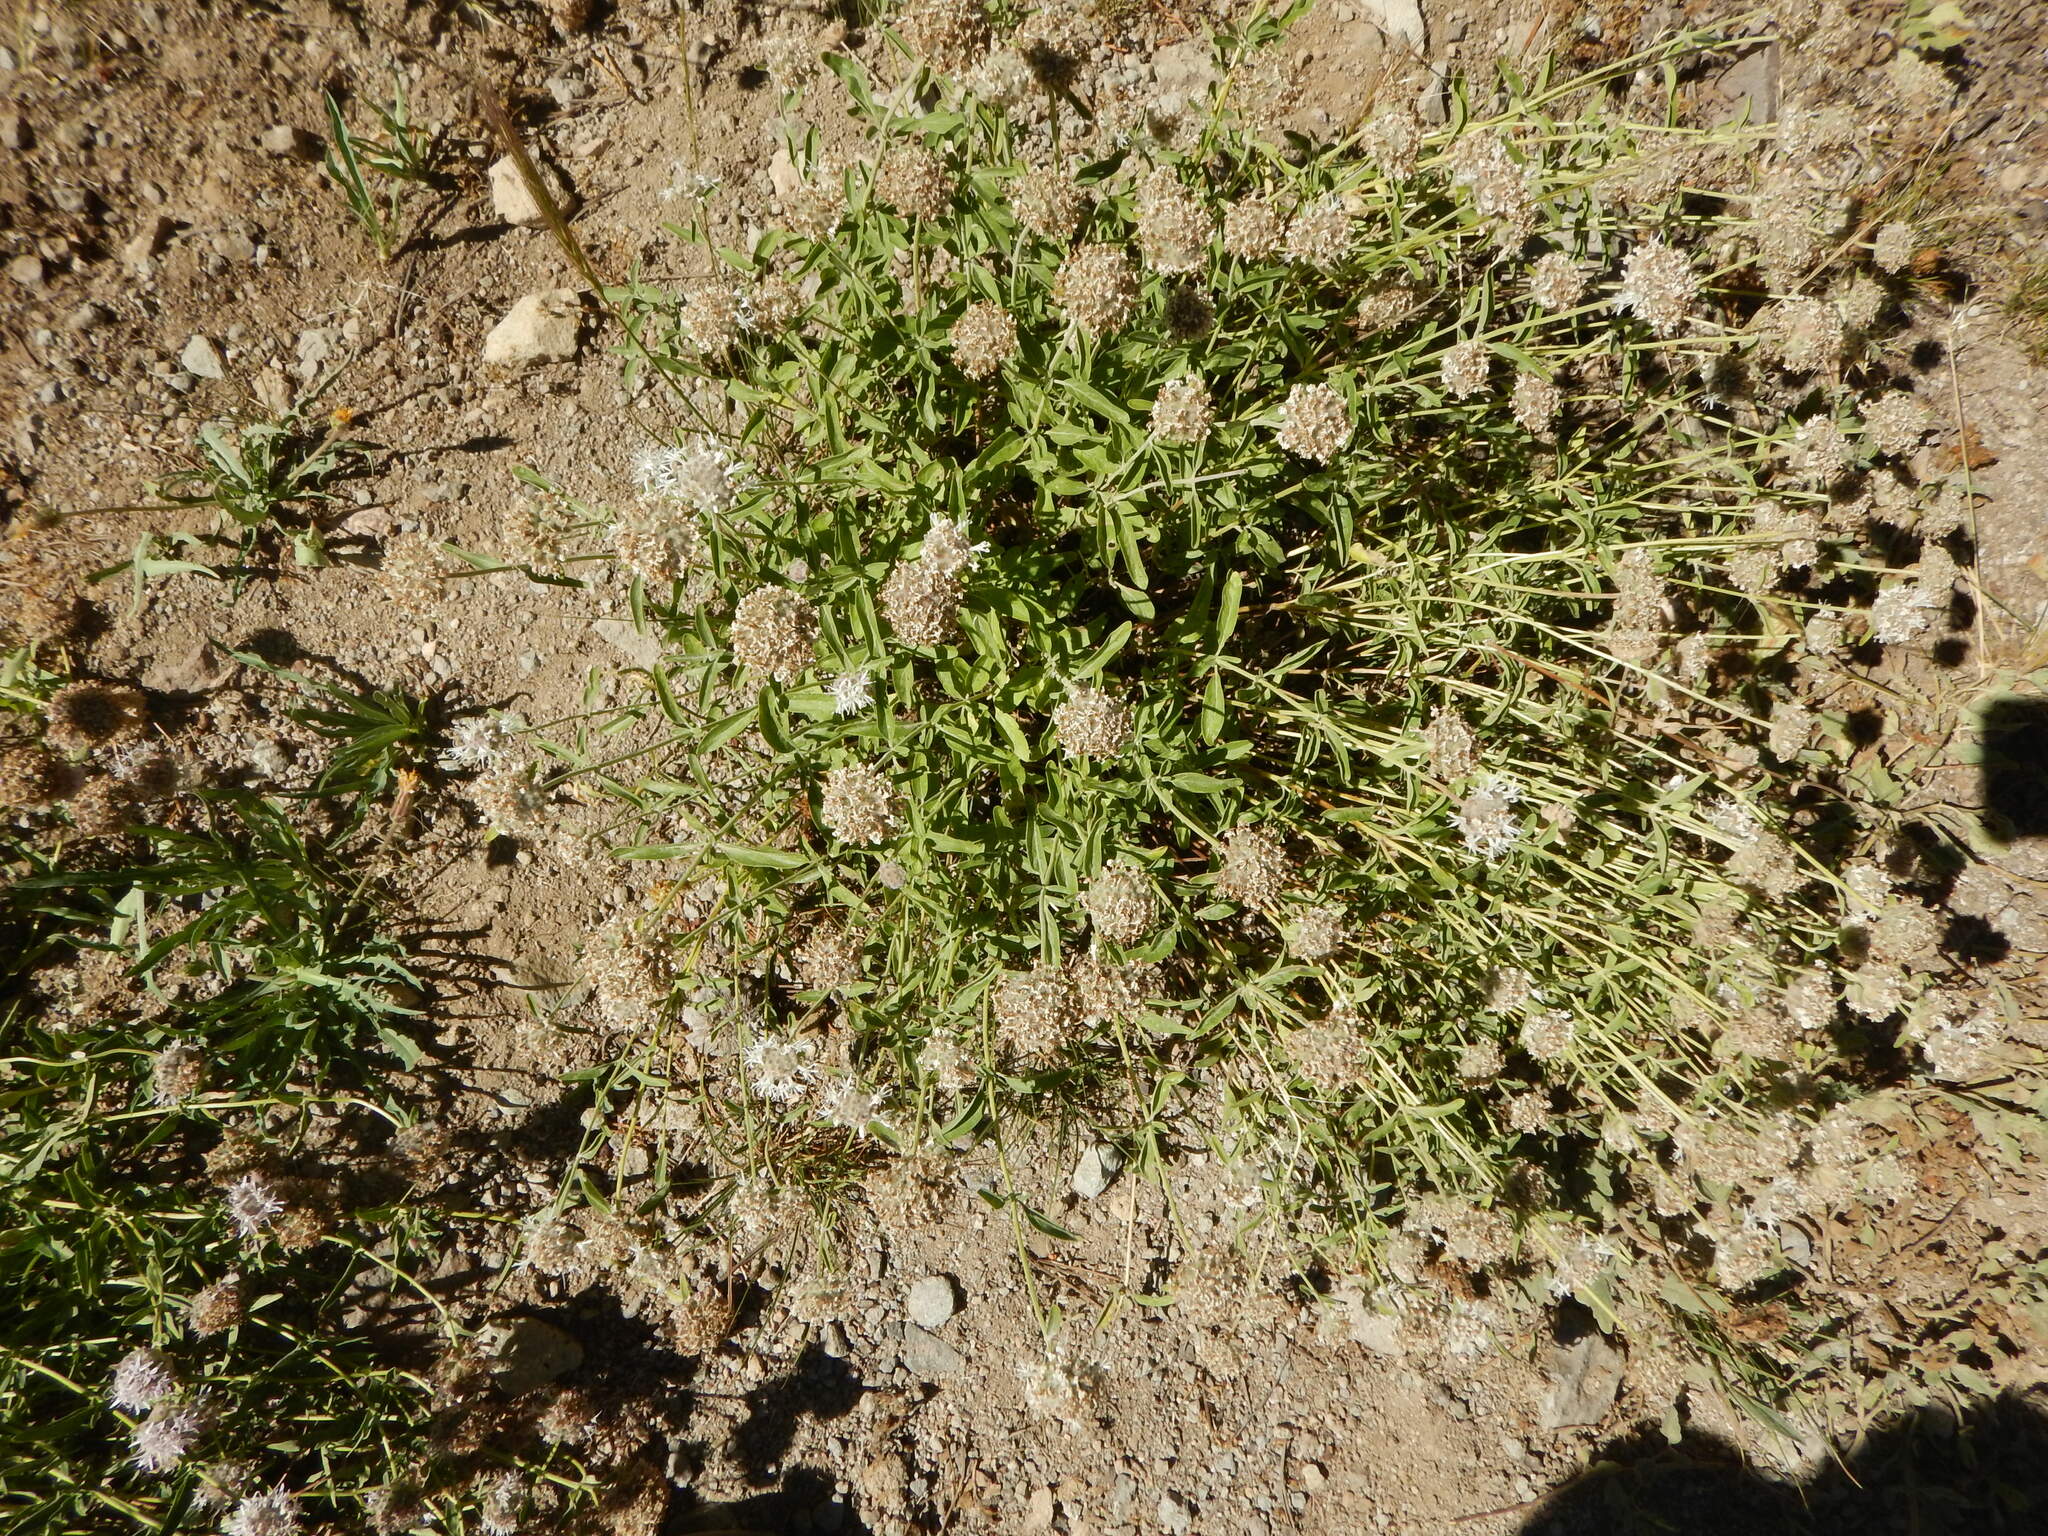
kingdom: Plantae
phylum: Tracheophyta
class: Magnoliopsida
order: Lamiales
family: Lamiaceae
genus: Monardella
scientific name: Monardella odoratissima
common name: Pacific monardella
